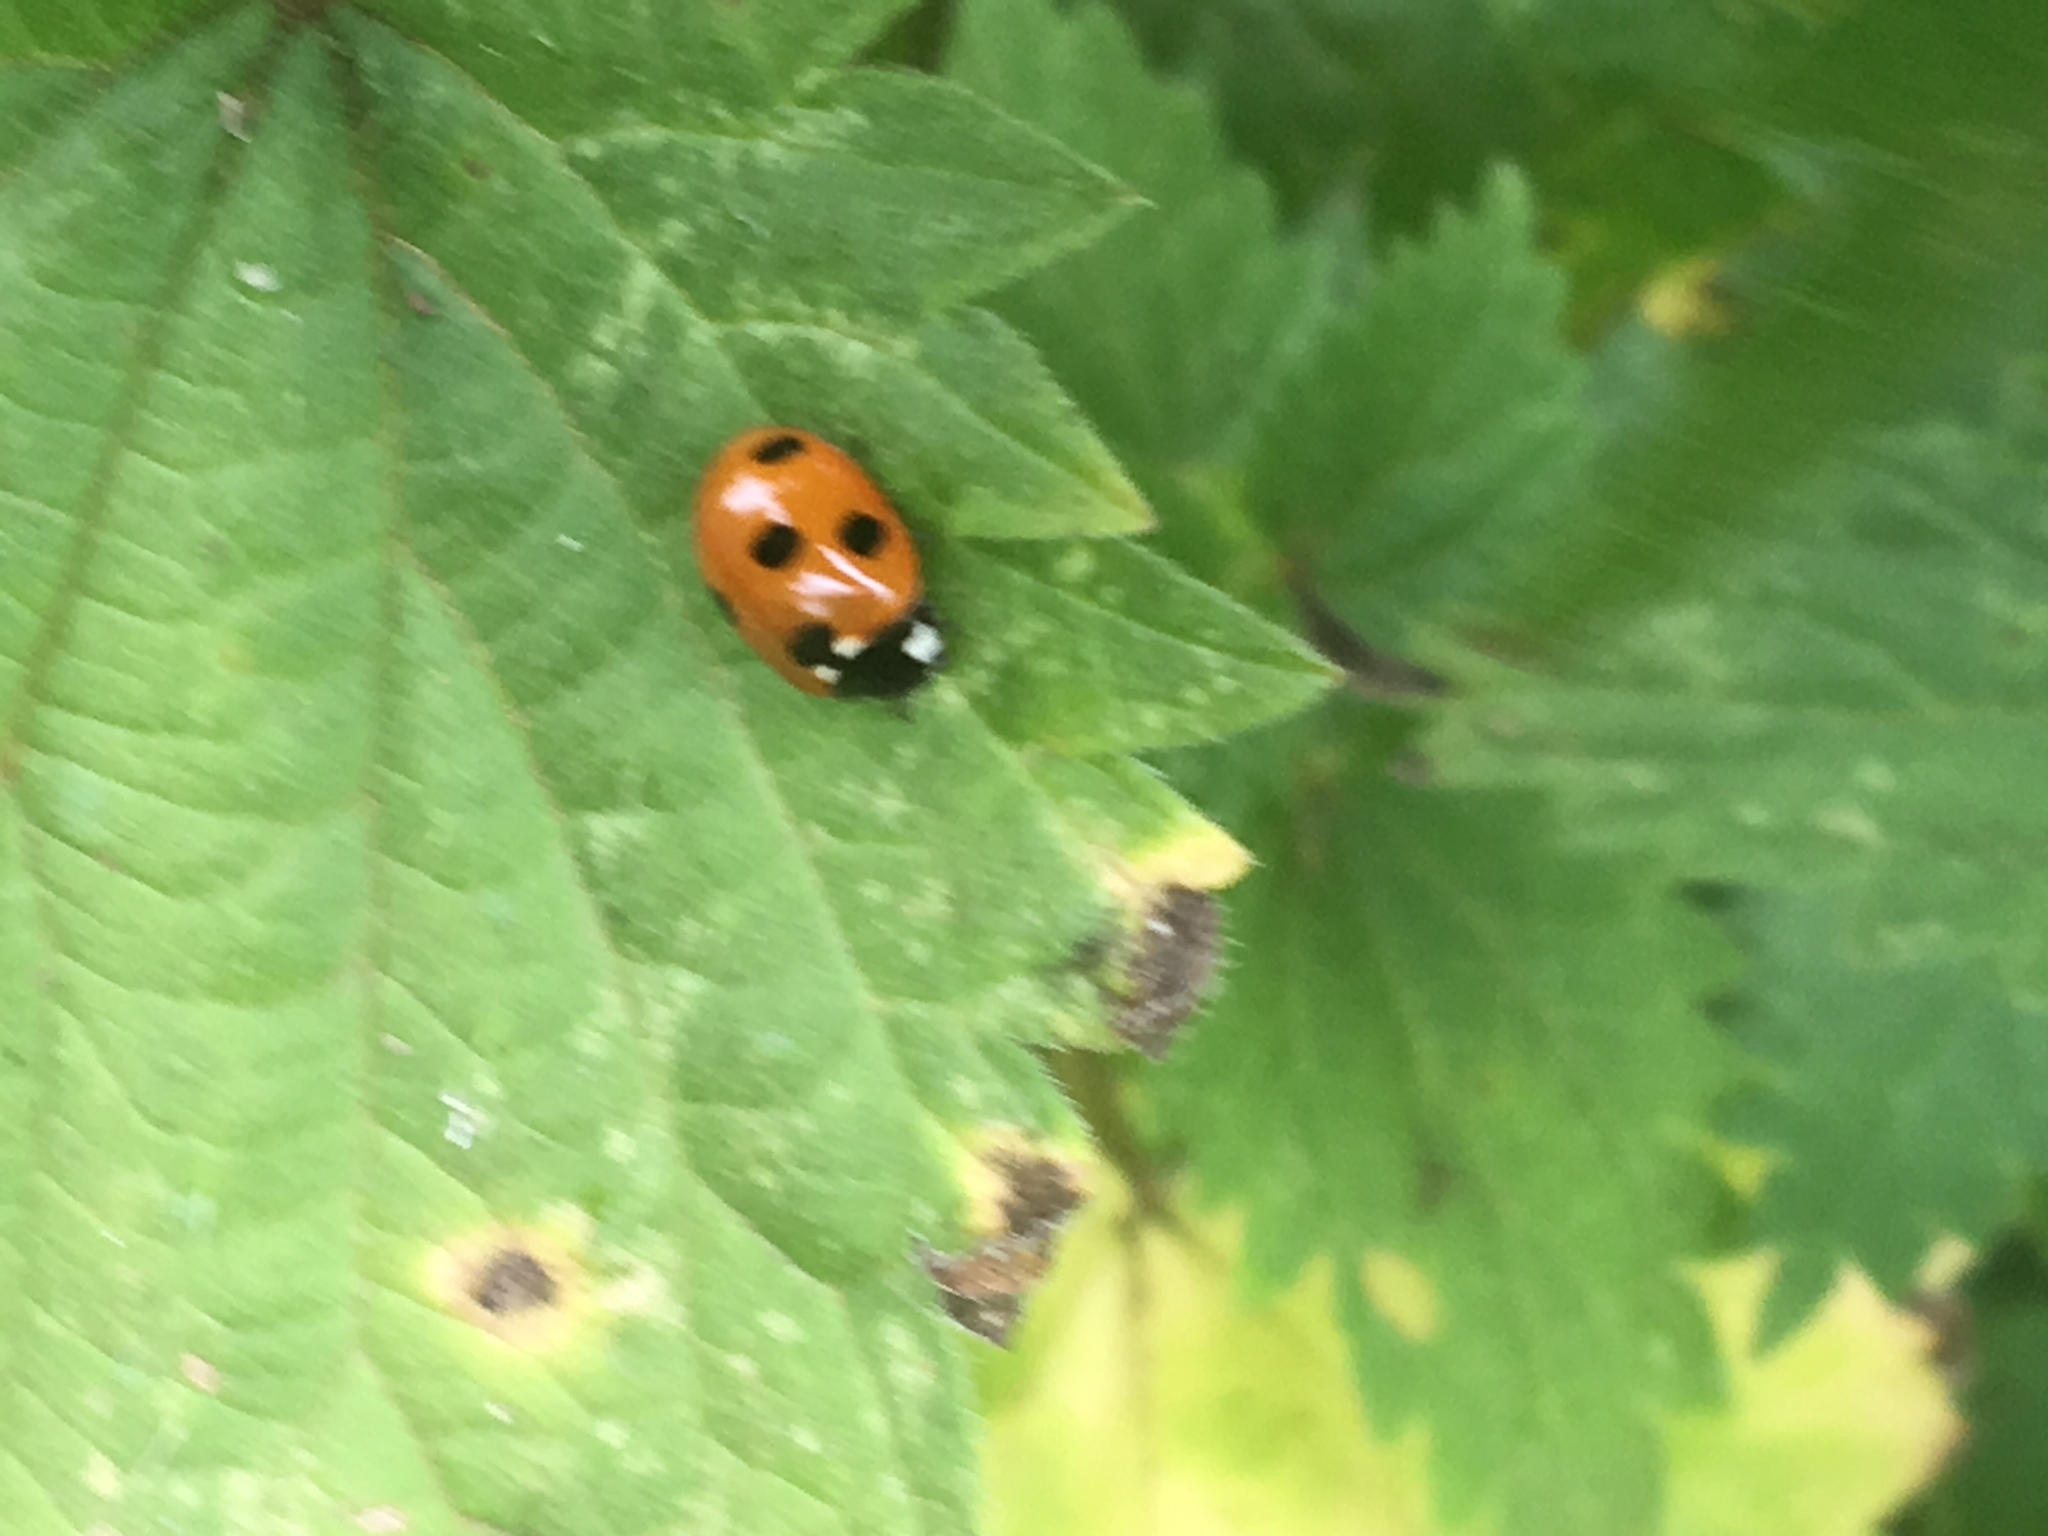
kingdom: Animalia
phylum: Arthropoda
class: Insecta
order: Coleoptera
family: Coccinellidae
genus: Coccinella
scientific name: Coccinella septempunctata
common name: Sevenspotted lady beetle
